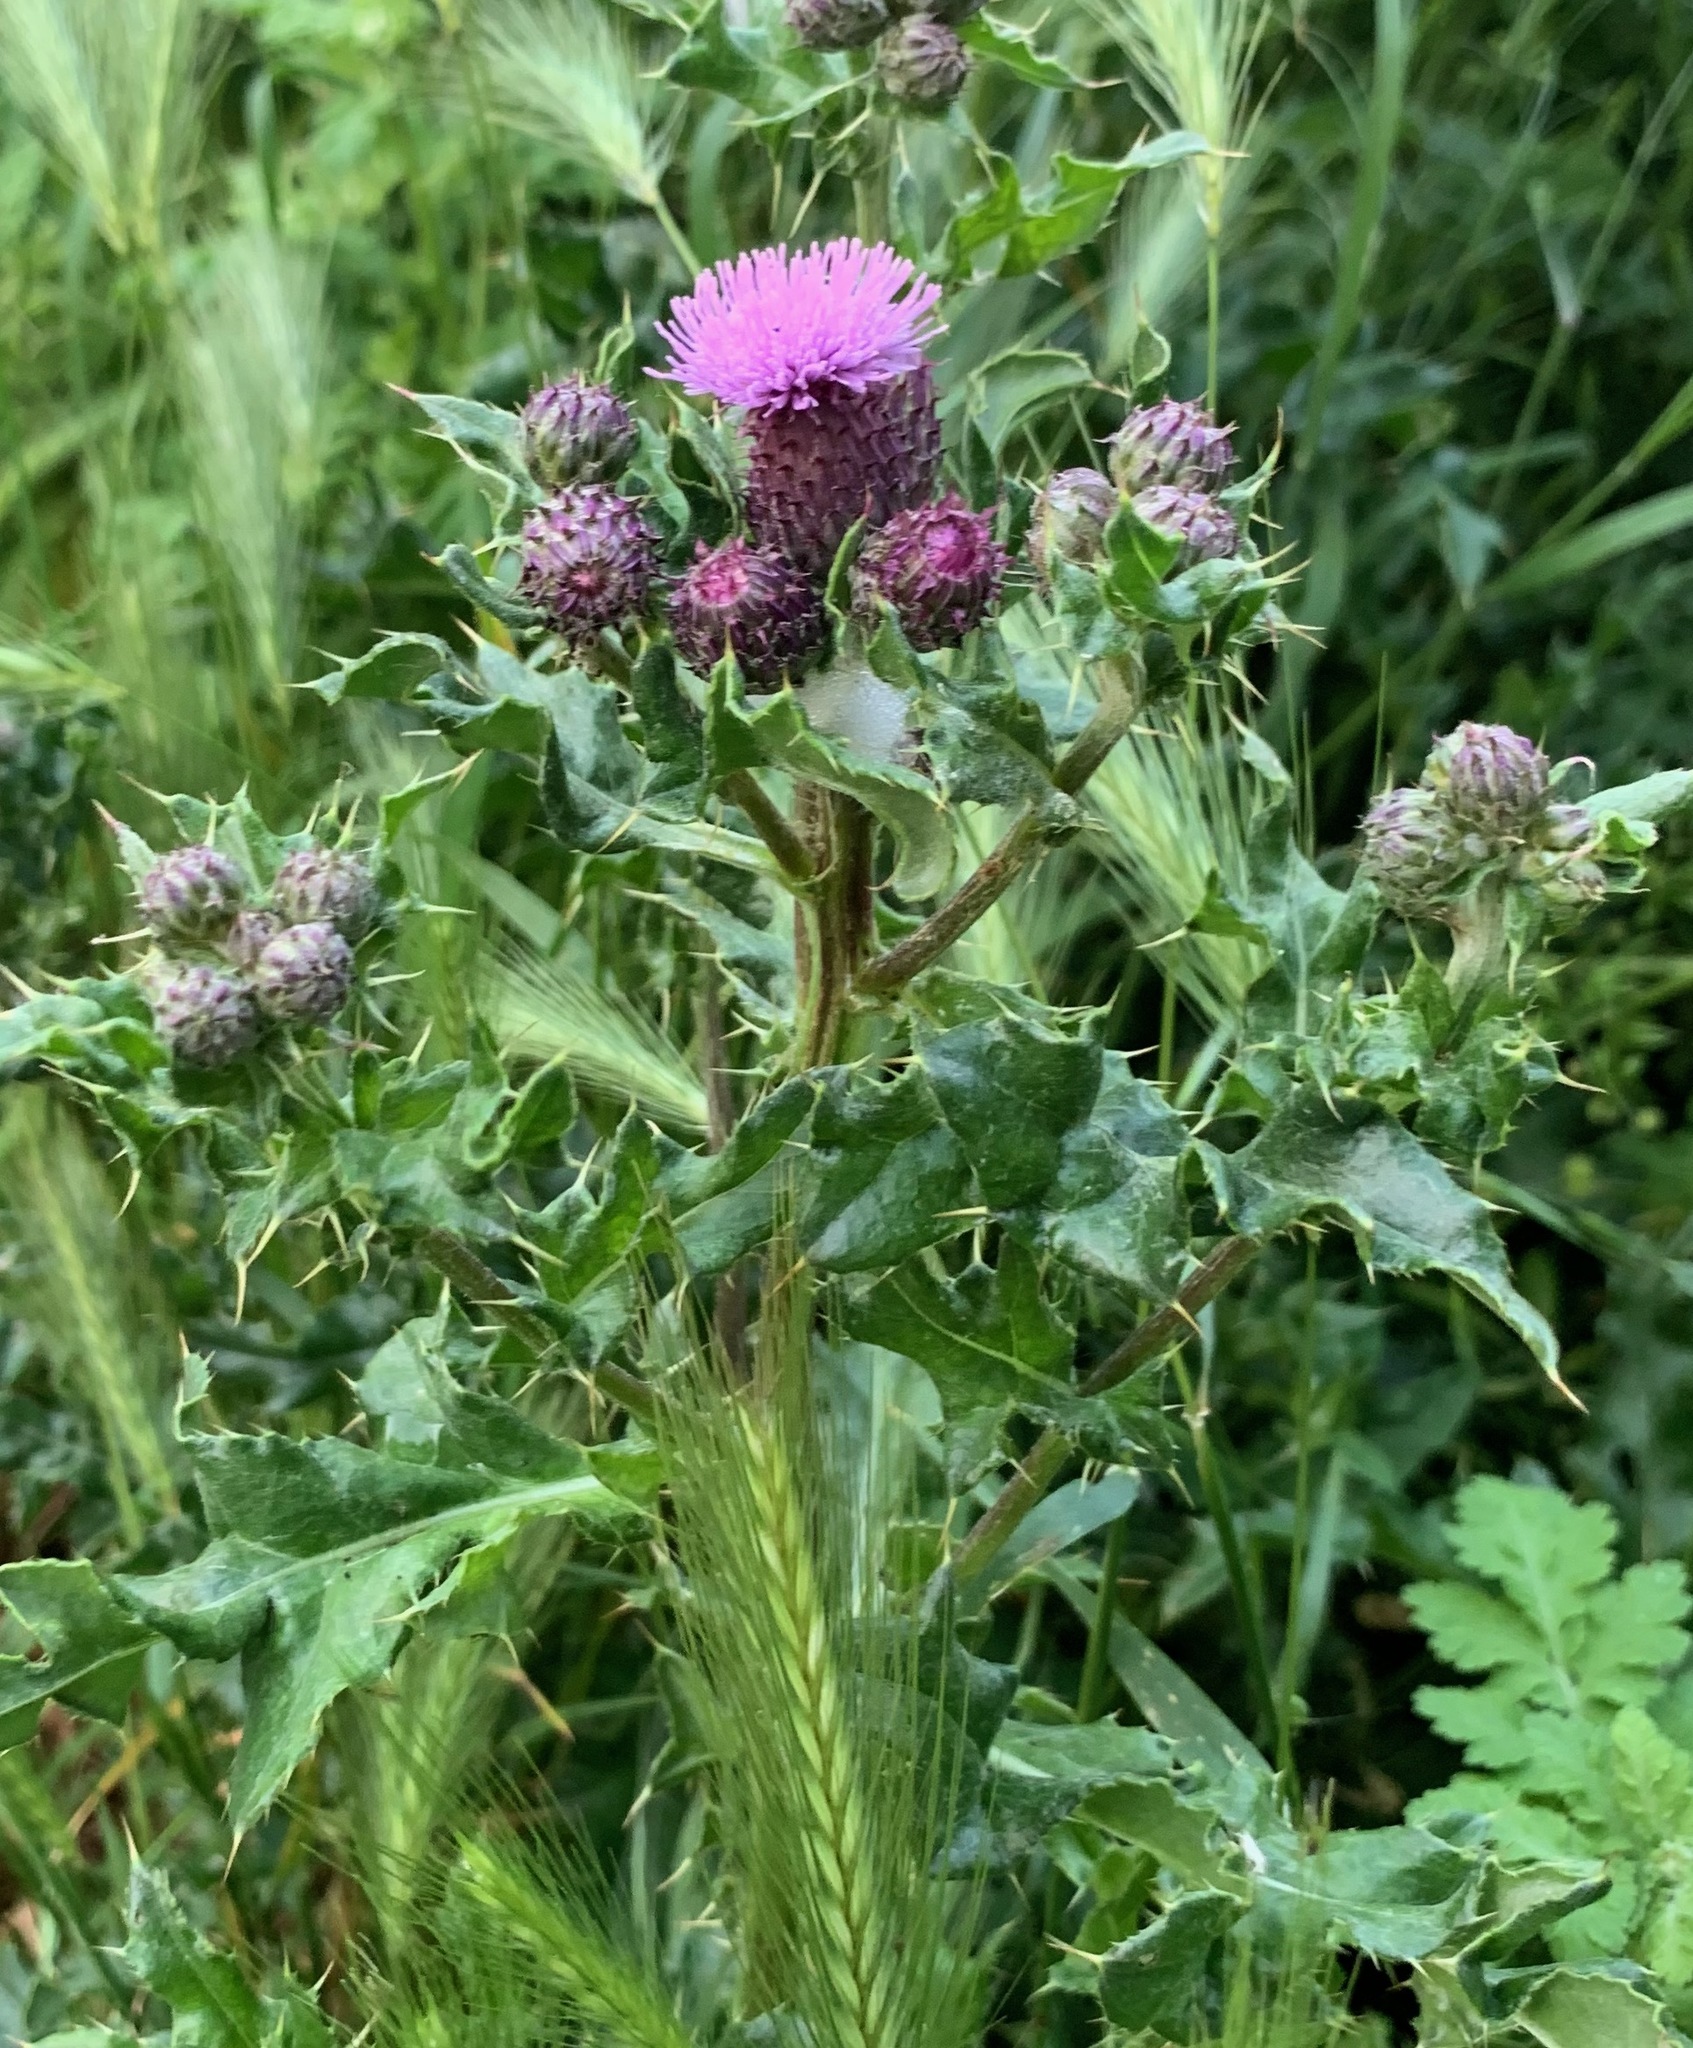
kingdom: Plantae
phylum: Tracheophyta
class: Magnoliopsida
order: Asterales
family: Asteraceae
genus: Cirsium
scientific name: Cirsium arvense
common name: Creeping thistle
